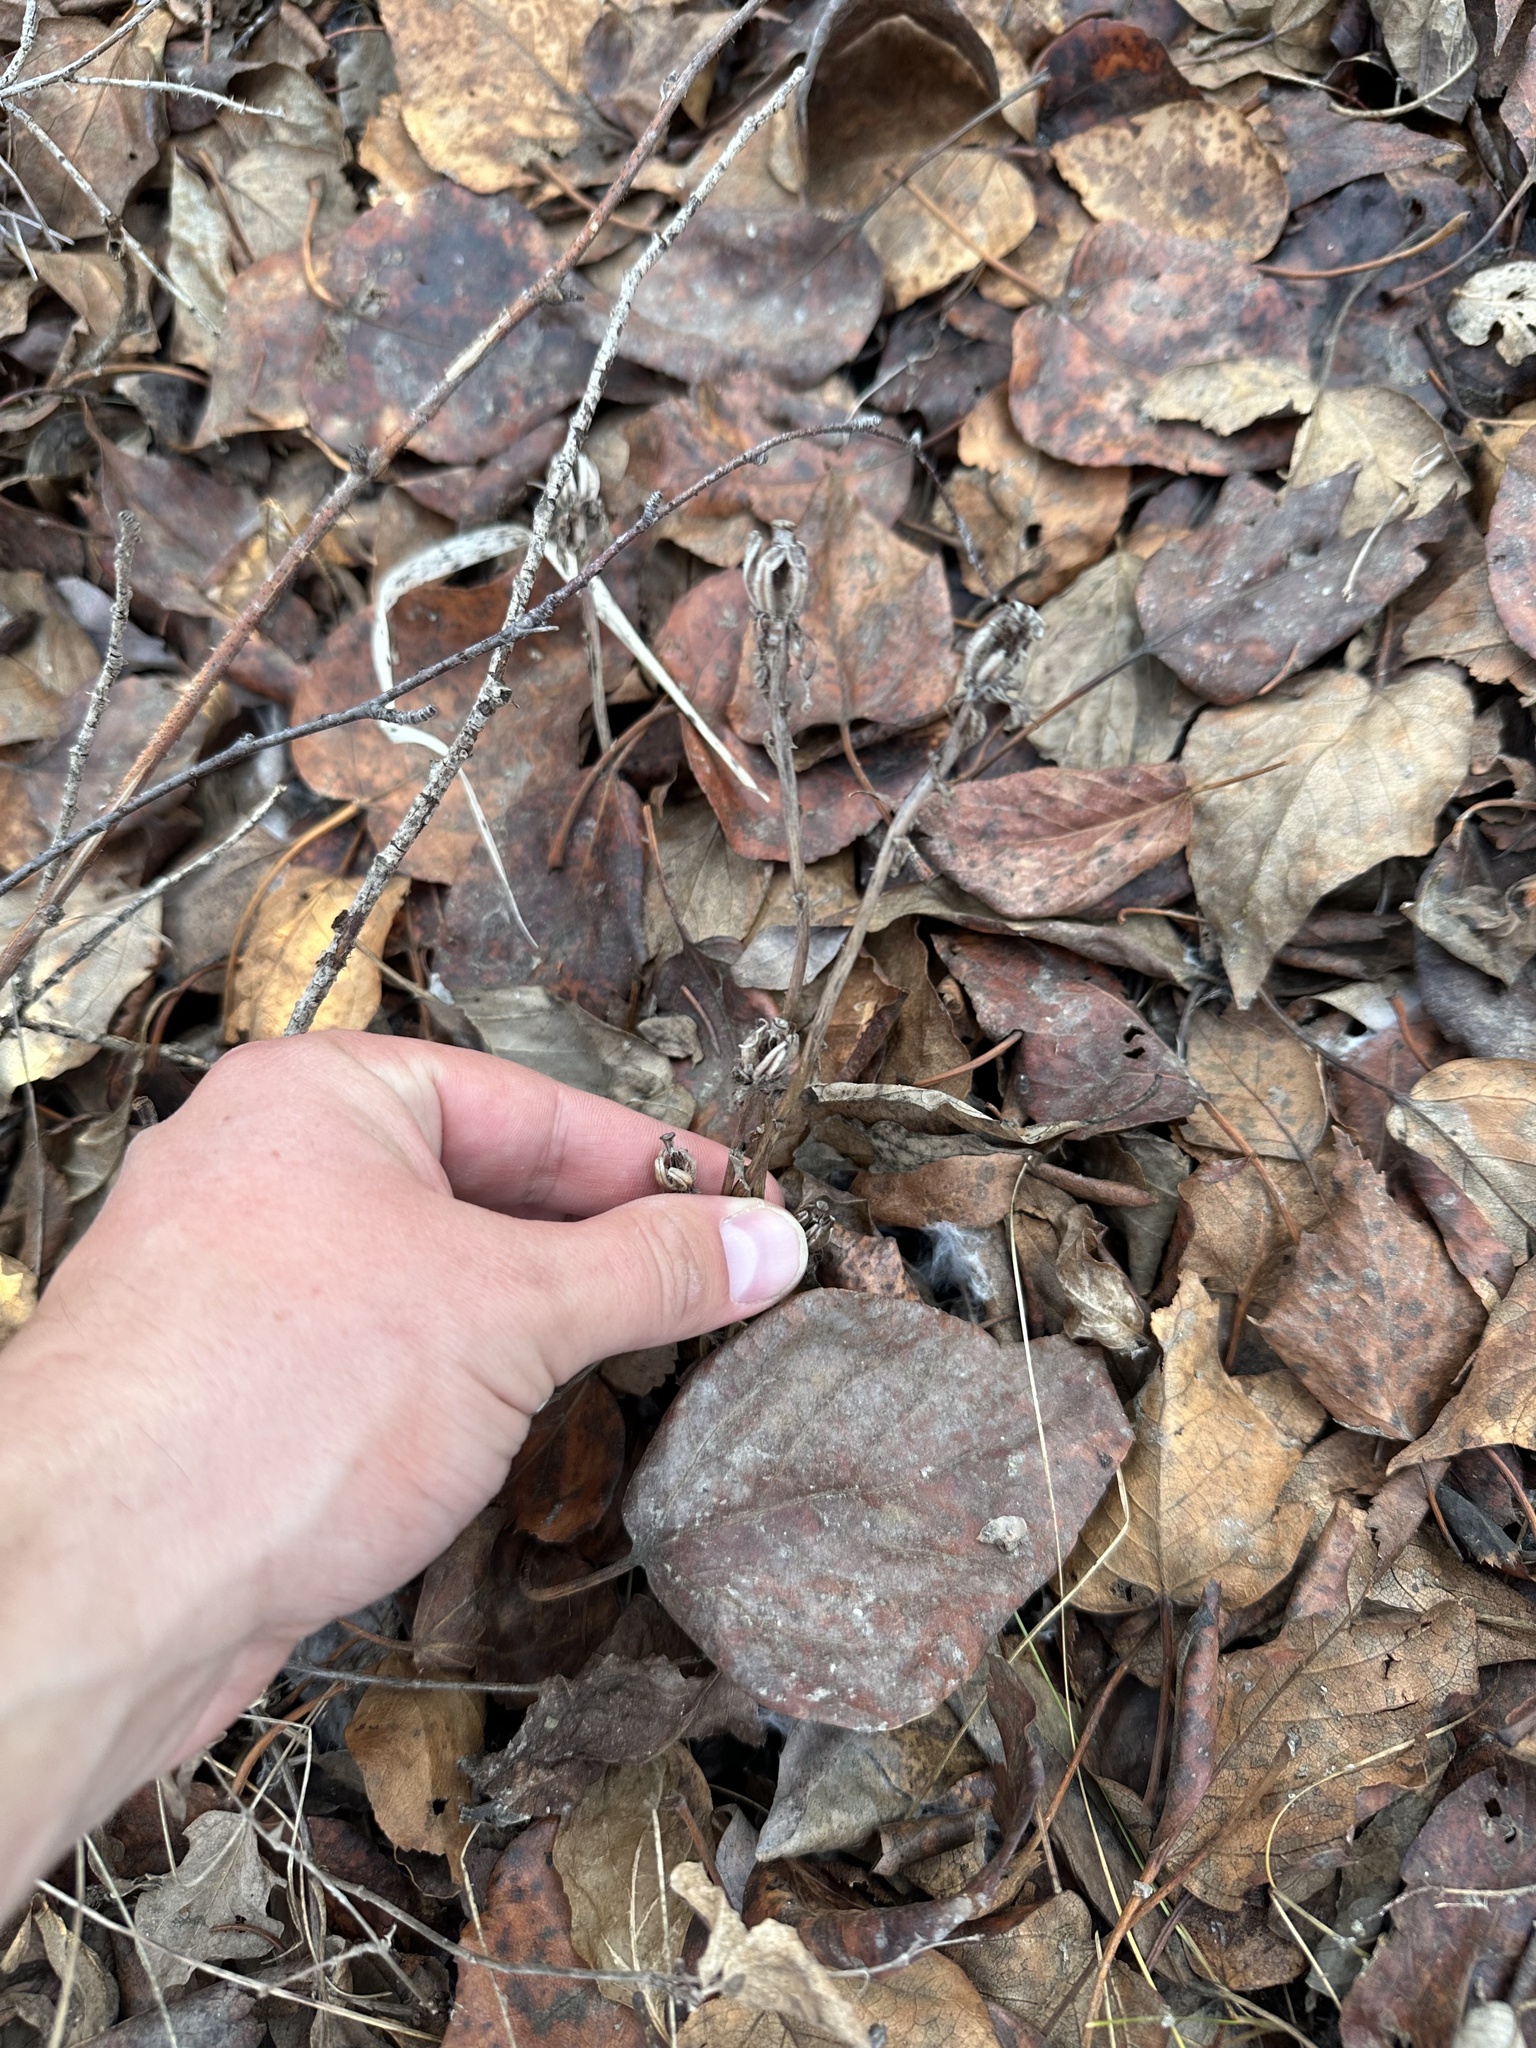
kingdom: Plantae
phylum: Tracheophyta
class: Magnoliopsida
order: Ericales
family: Ericaceae
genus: Monotropa
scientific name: Monotropa uniflora
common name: Convulsion root
